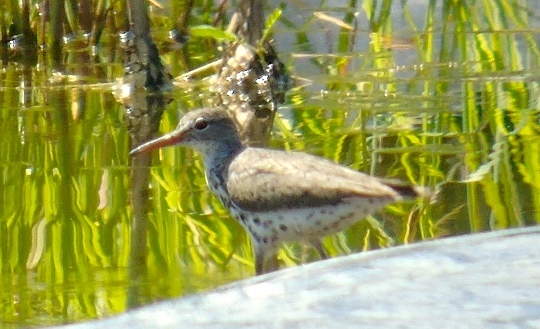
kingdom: Animalia
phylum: Chordata
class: Aves
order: Charadriiformes
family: Scolopacidae
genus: Actitis
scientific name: Actitis macularius
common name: Spotted sandpiper
